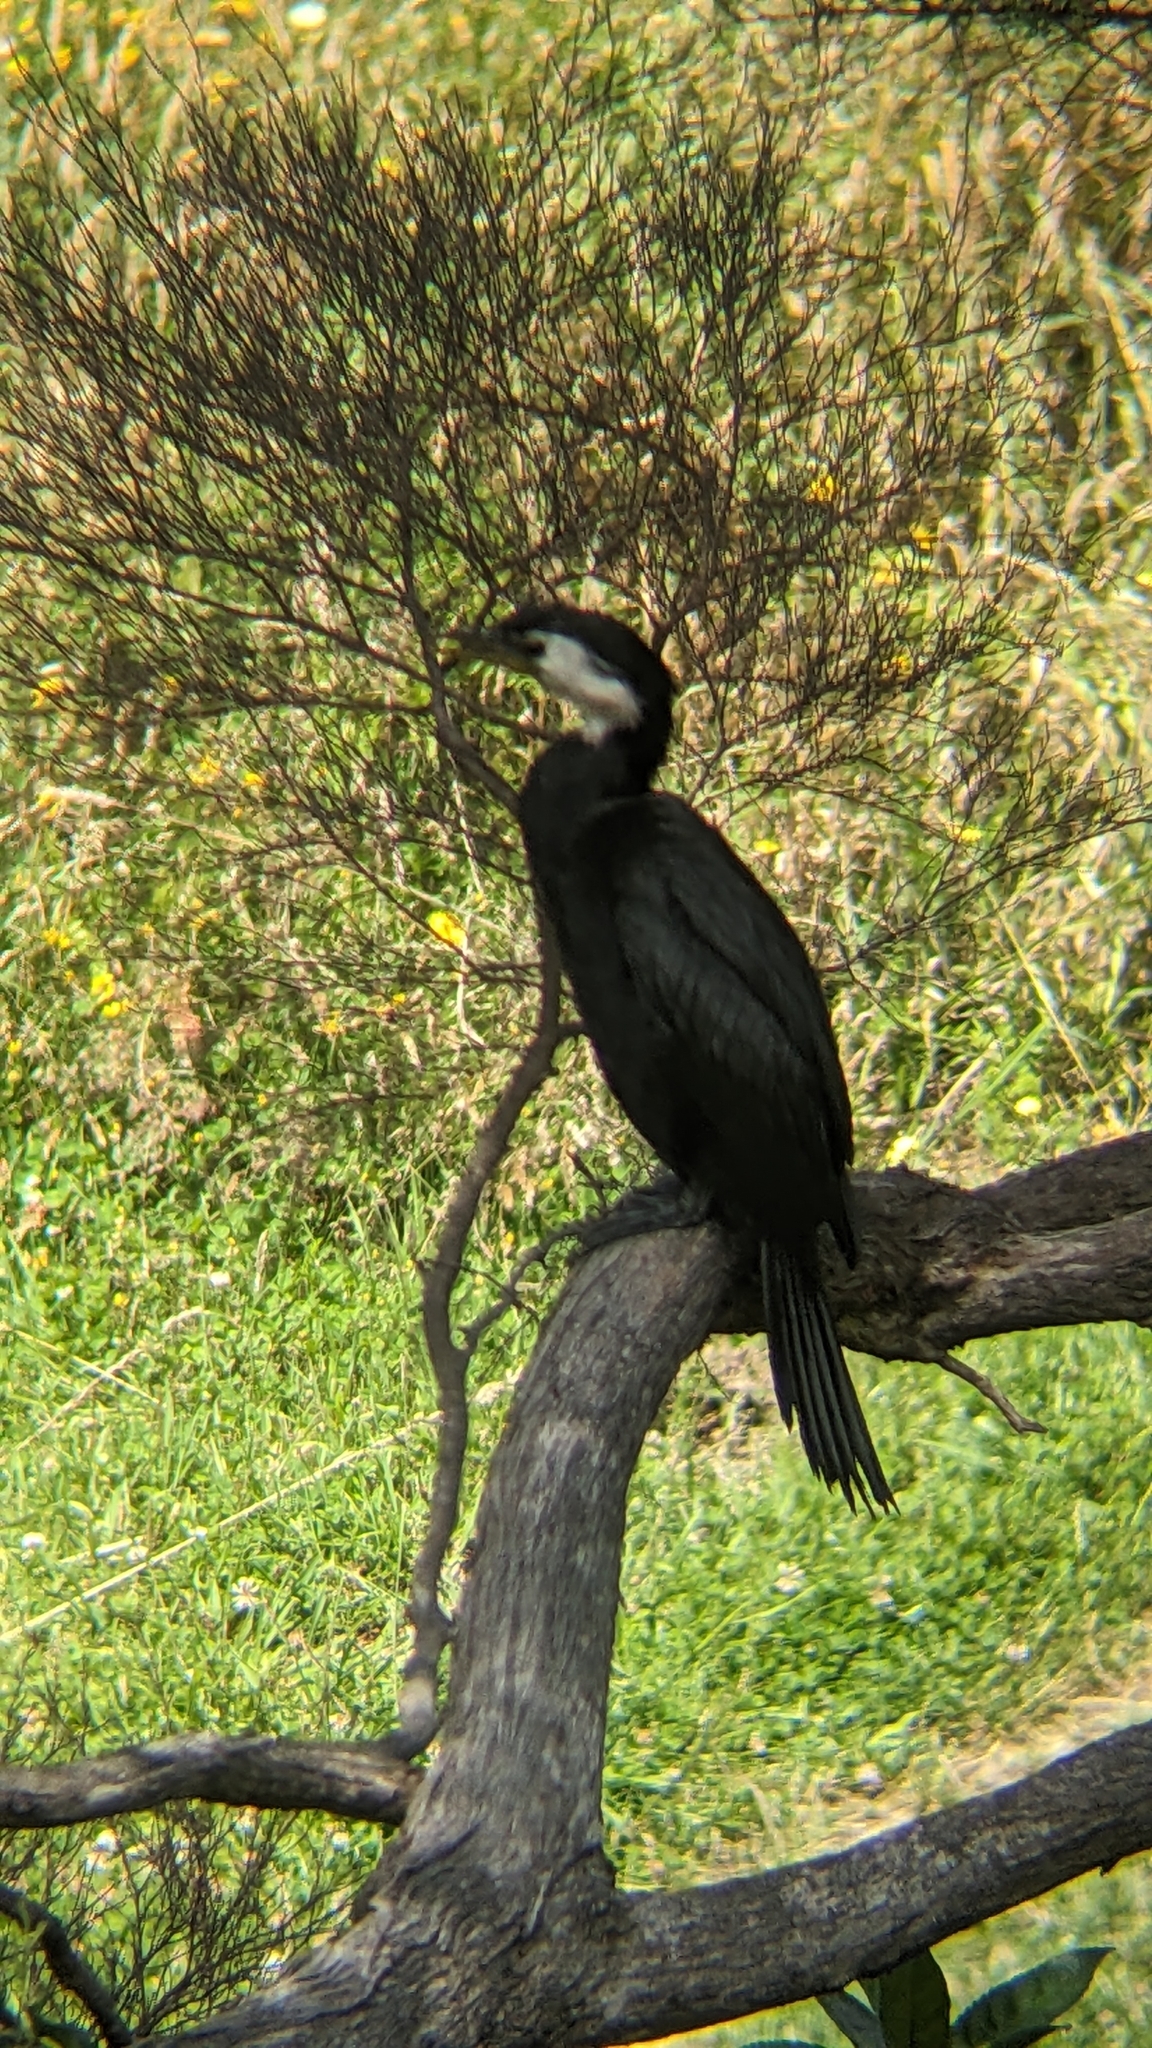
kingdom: Animalia
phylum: Chordata
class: Aves
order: Suliformes
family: Phalacrocoracidae
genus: Microcarbo
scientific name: Microcarbo melanoleucos
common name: Little pied cormorant
